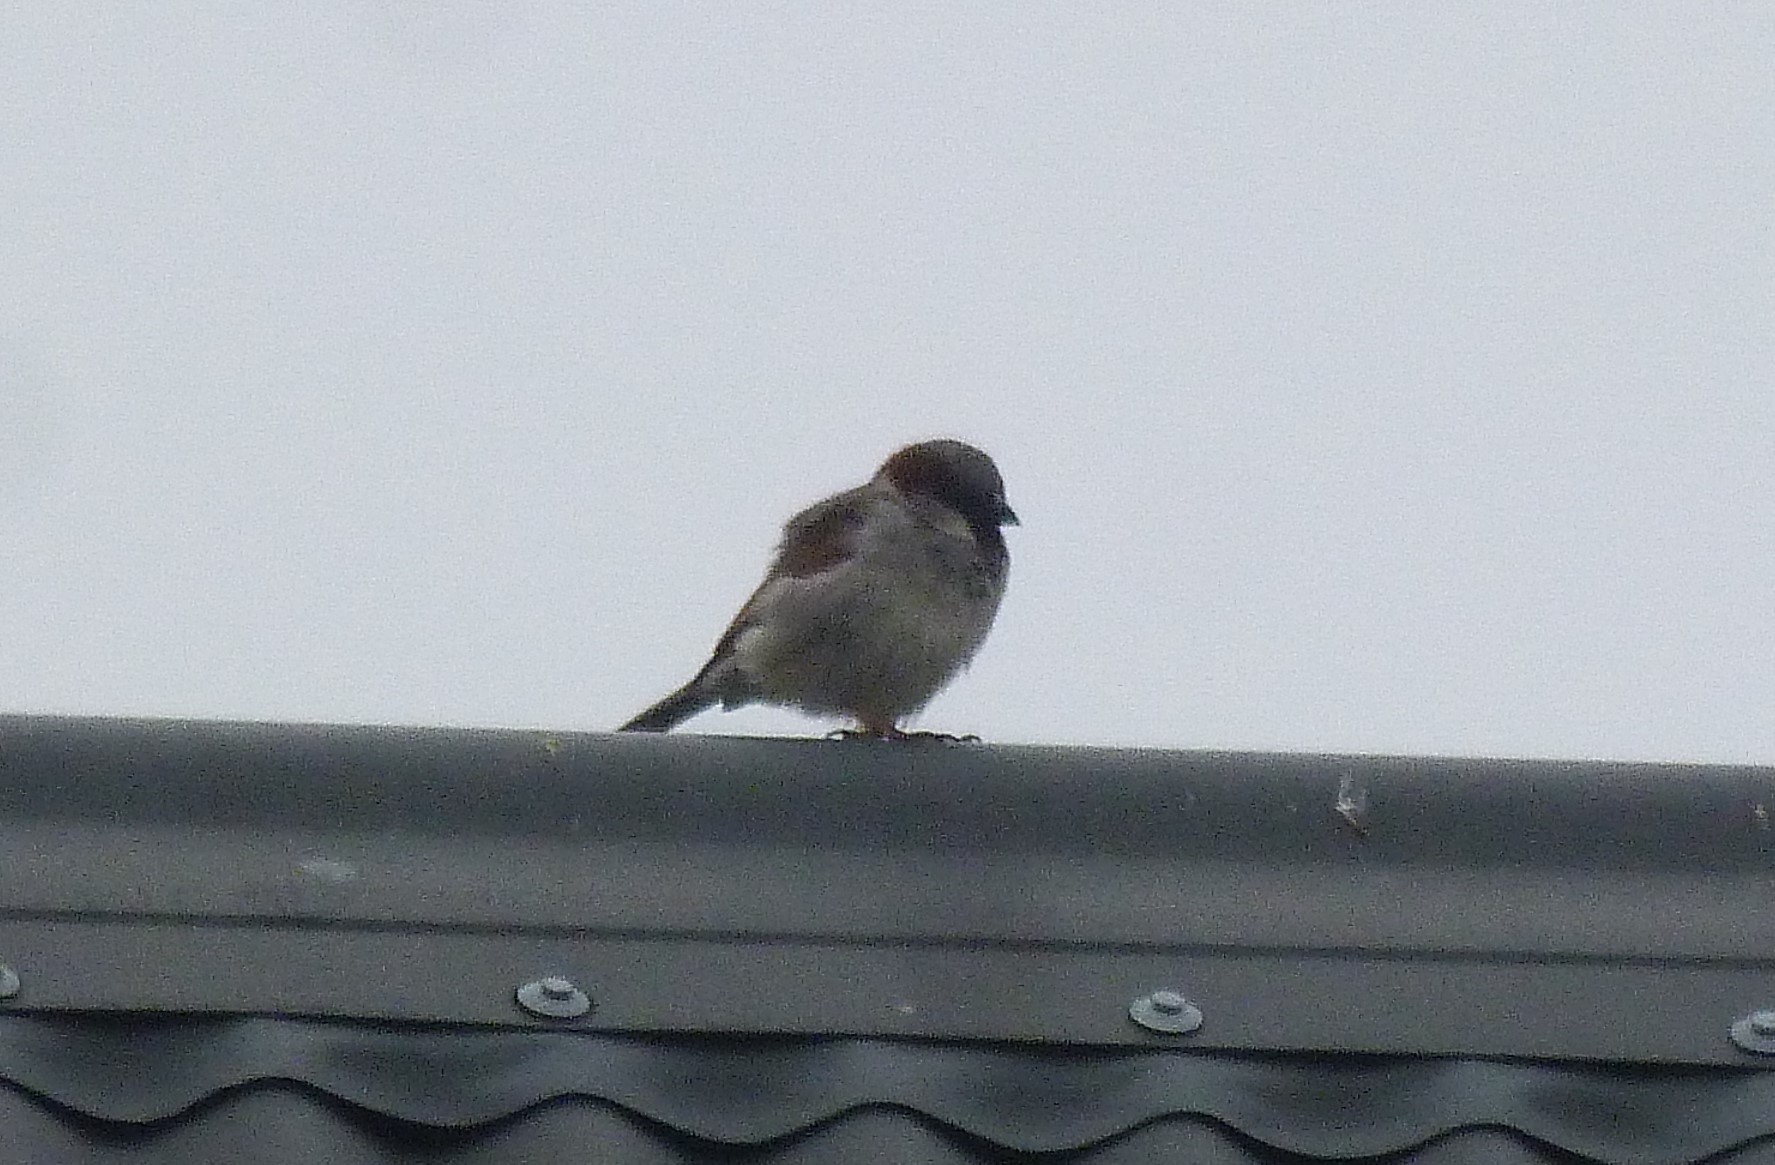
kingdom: Animalia
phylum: Chordata
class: Aves
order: Passeriformes
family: Passeridae
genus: Passer
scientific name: Passer domesticus
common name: House sparrow
